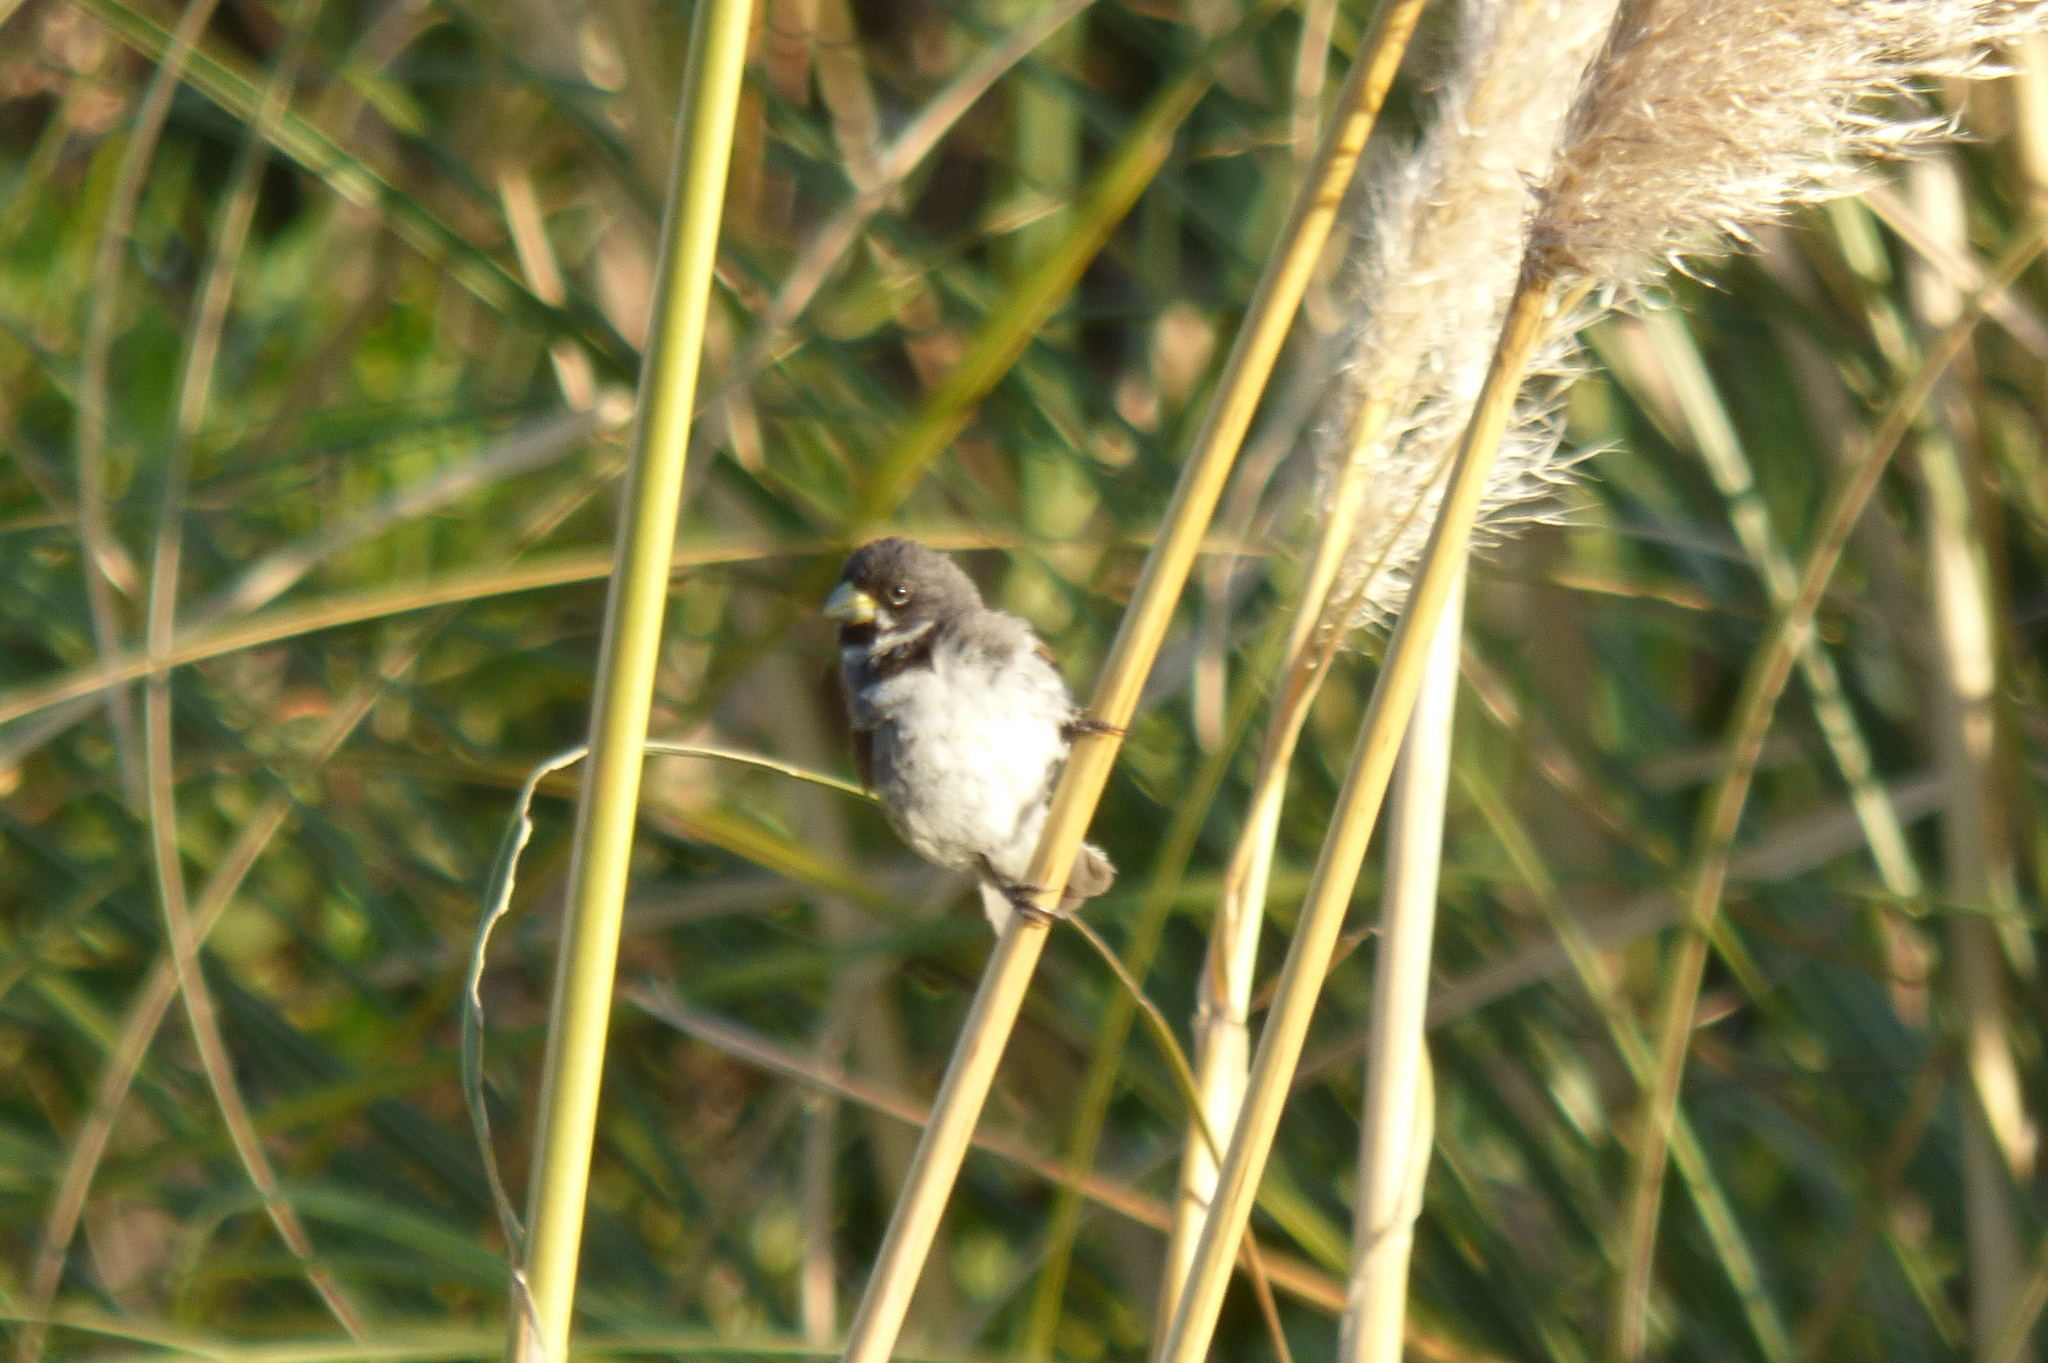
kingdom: Animalia
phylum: Chordata
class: Aves
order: Passeriformes
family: Thraupidae
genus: Sporophila
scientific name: Sporophila caerulescens
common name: Double-collared seedeater
